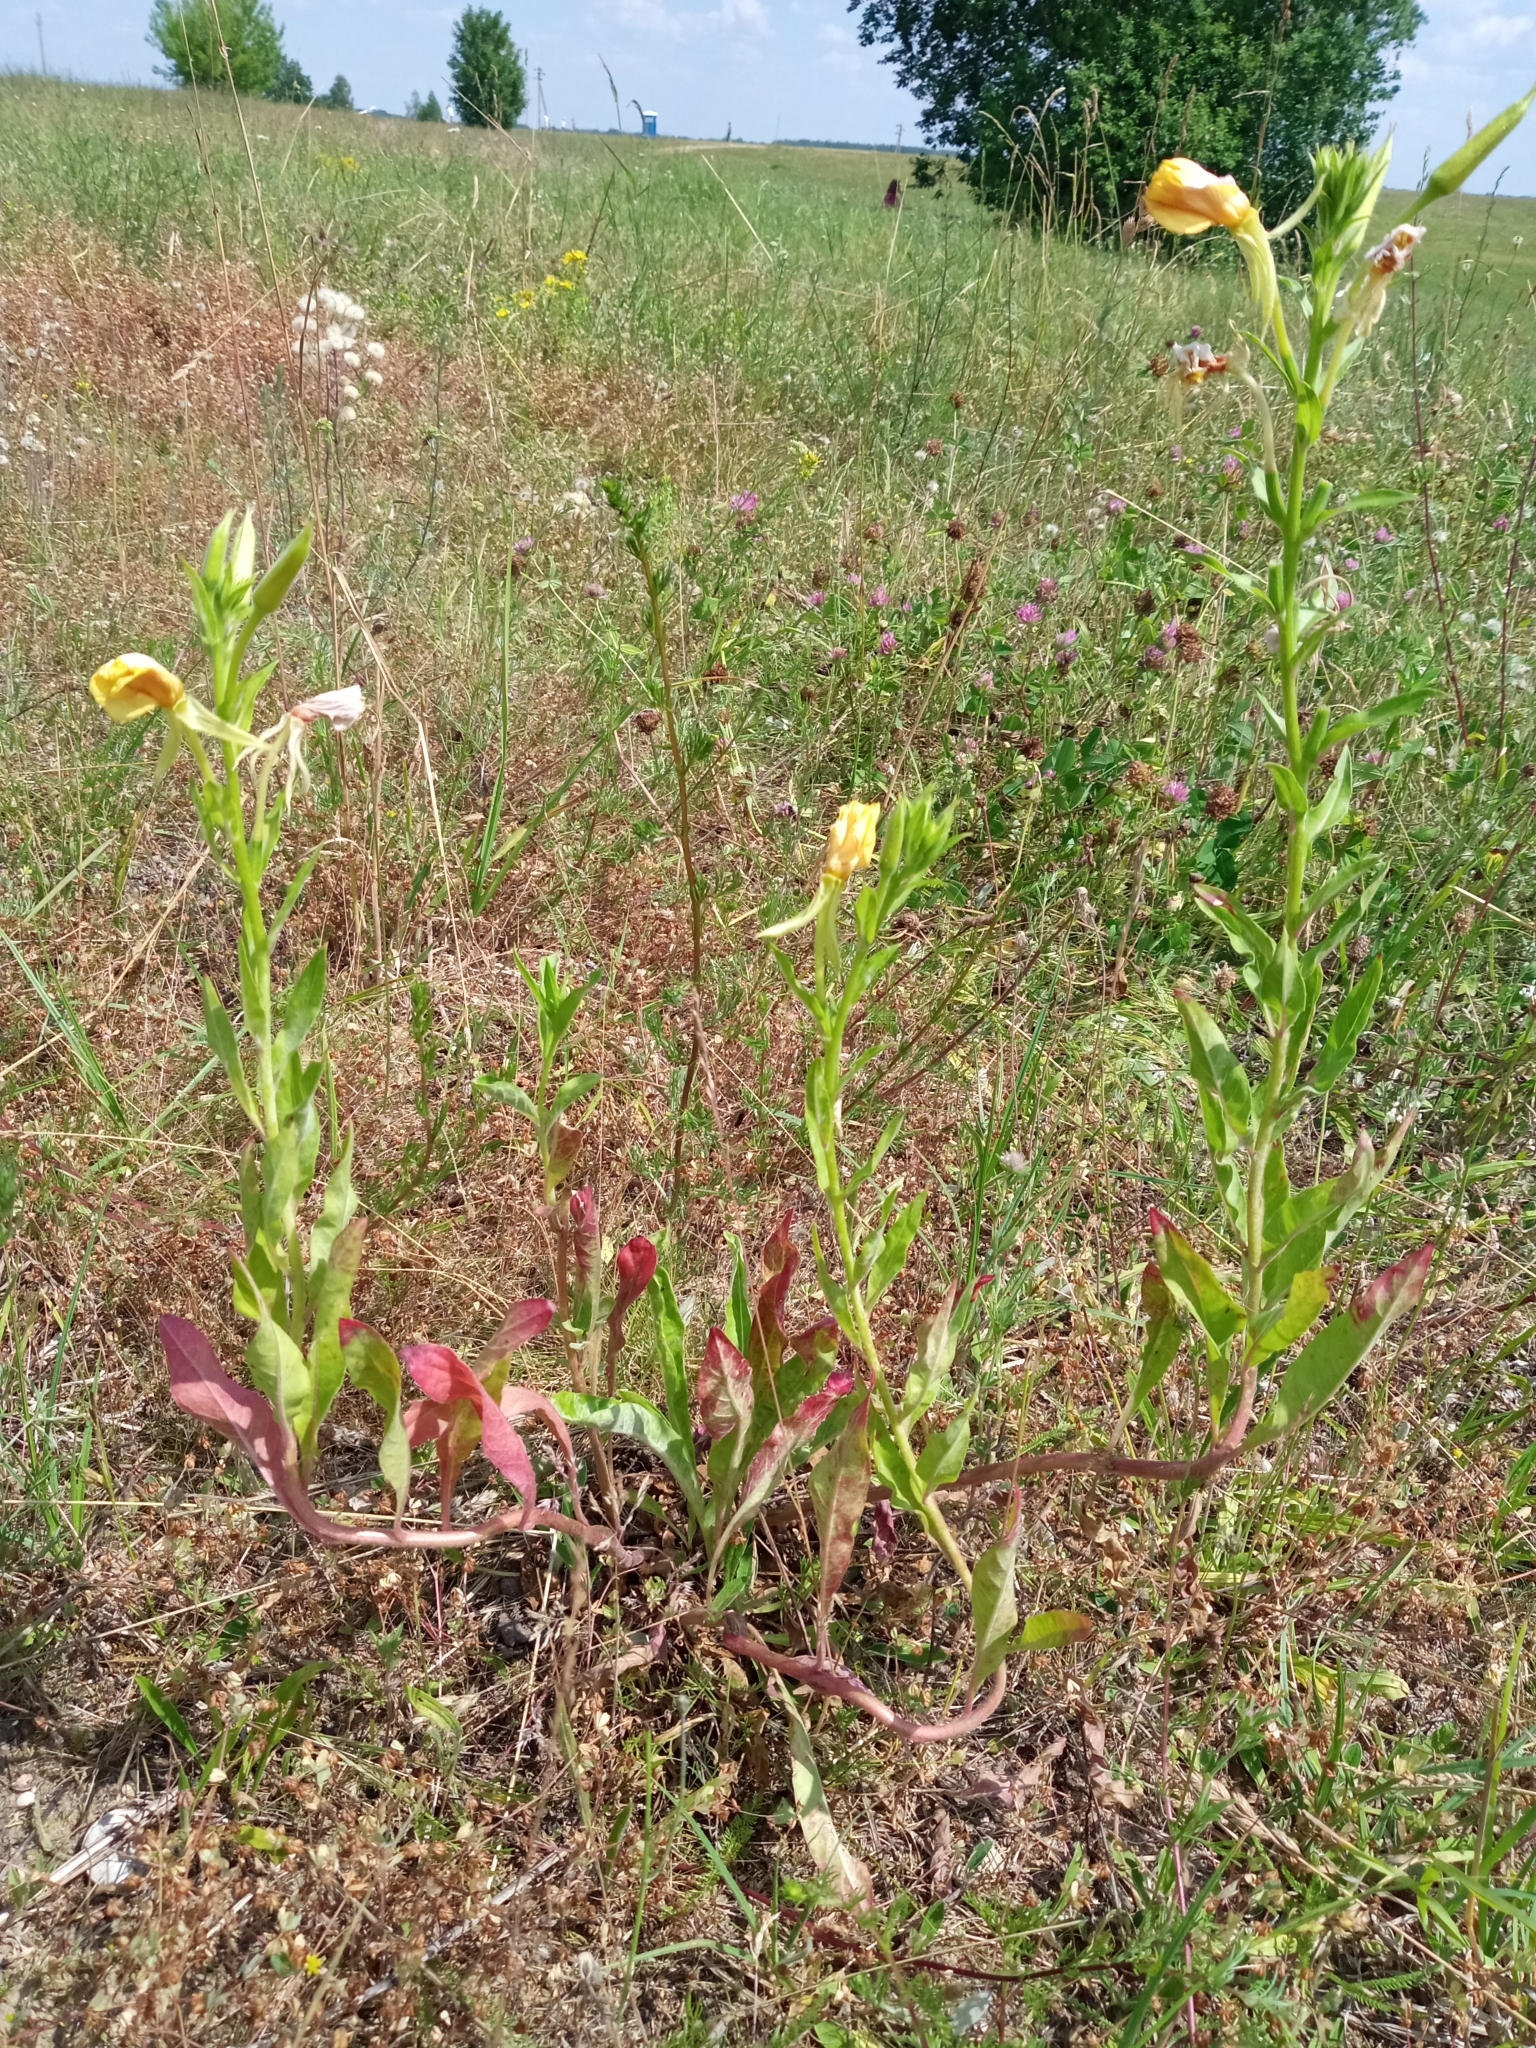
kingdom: Plantae
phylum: Tracheophyta
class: Magnoliopsida
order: Myrtales
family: Onagraceae
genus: Oenothera
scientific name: Oenothera biennis
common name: Common evening-primrose
